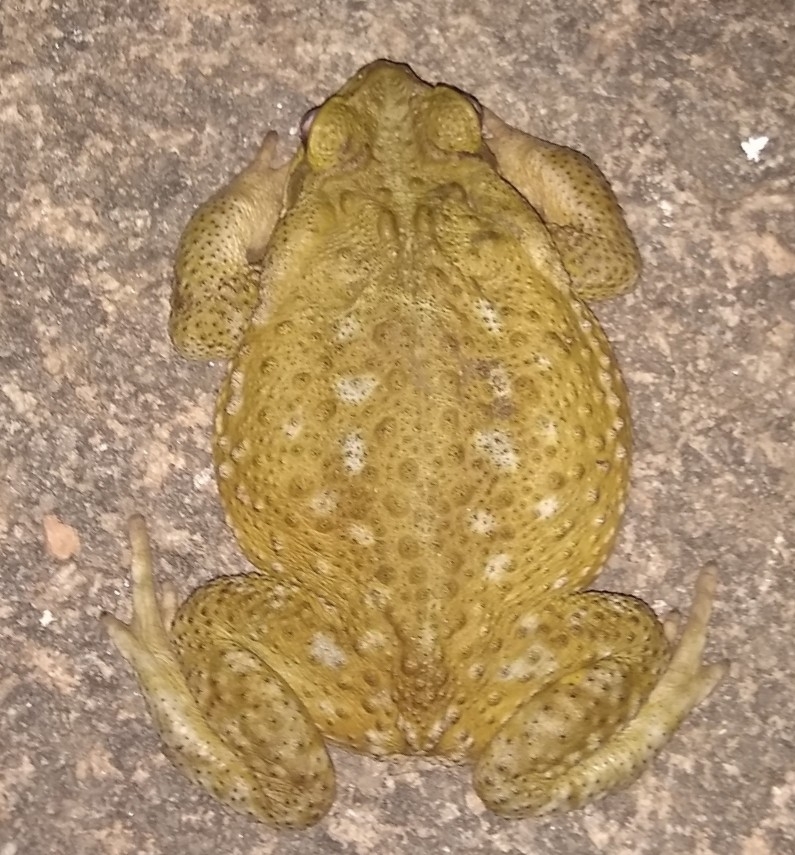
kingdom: Animalia
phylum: Chordata
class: Amphibia
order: Anura
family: Bufonidae
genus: Rhinella
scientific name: Rhinella arenarum
